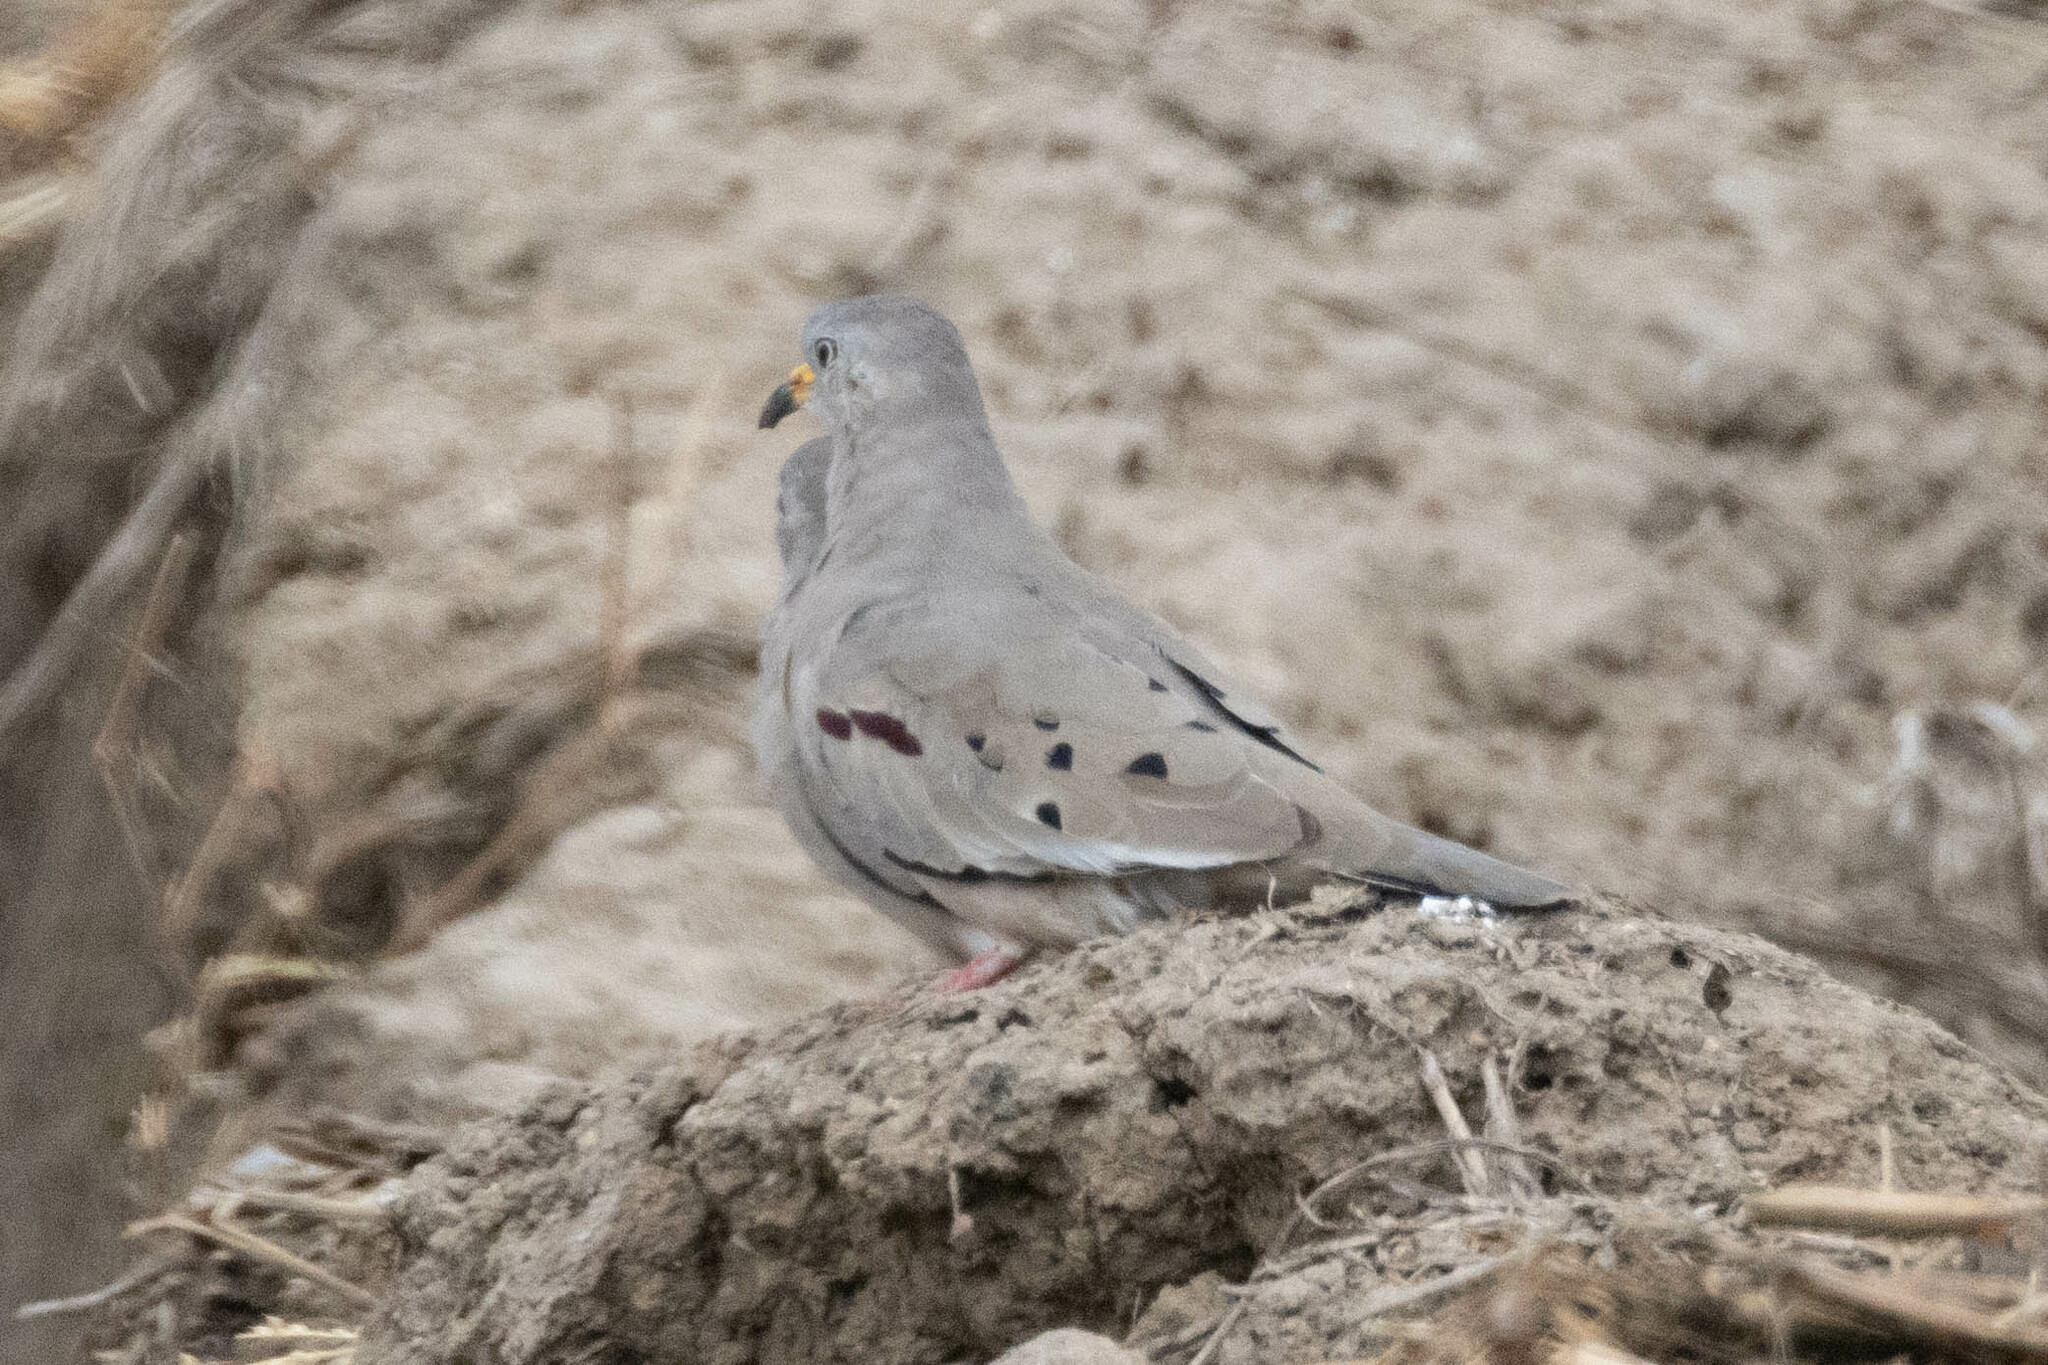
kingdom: Animalia
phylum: Chordata
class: Aves
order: Columbiformes
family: Columbidae
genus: Columbina
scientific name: Columbina cruziana
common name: Croaking ground dove
